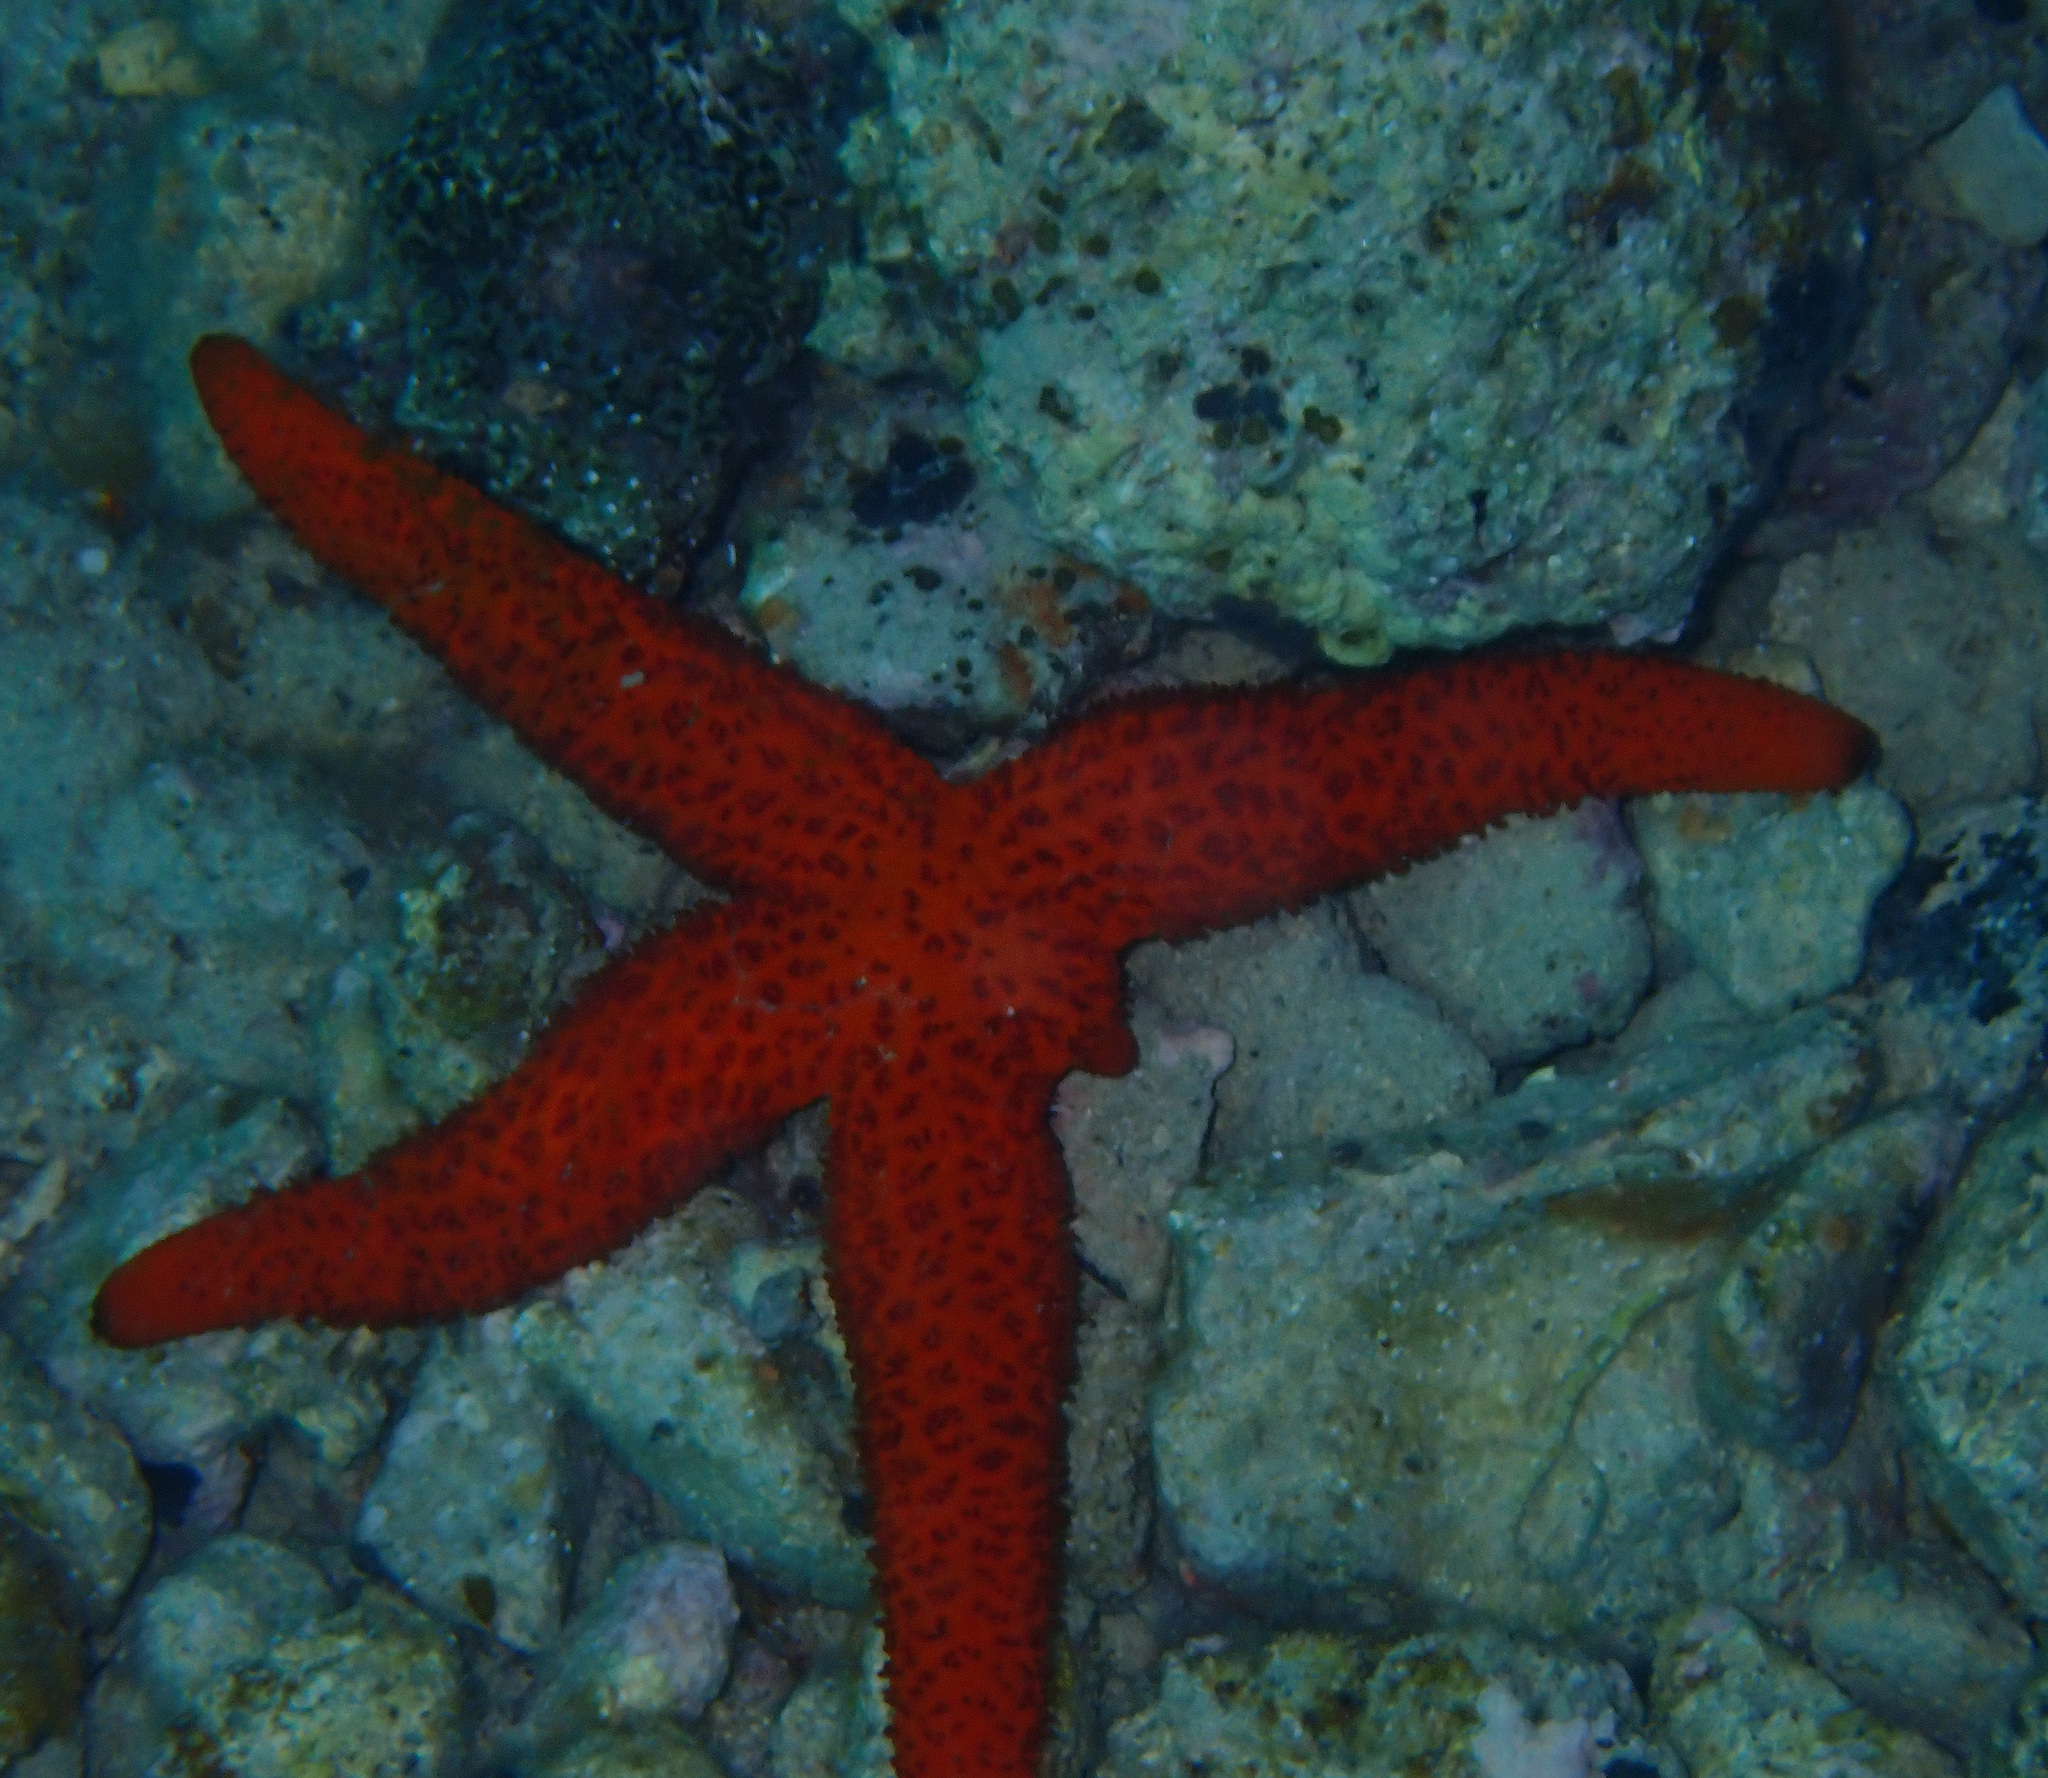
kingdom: Animalia
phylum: Echinodermata
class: Asteroidea
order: Spinulosida
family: Echinasteridae
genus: Echinaster
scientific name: Echinaster sepositus
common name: Red starfish
